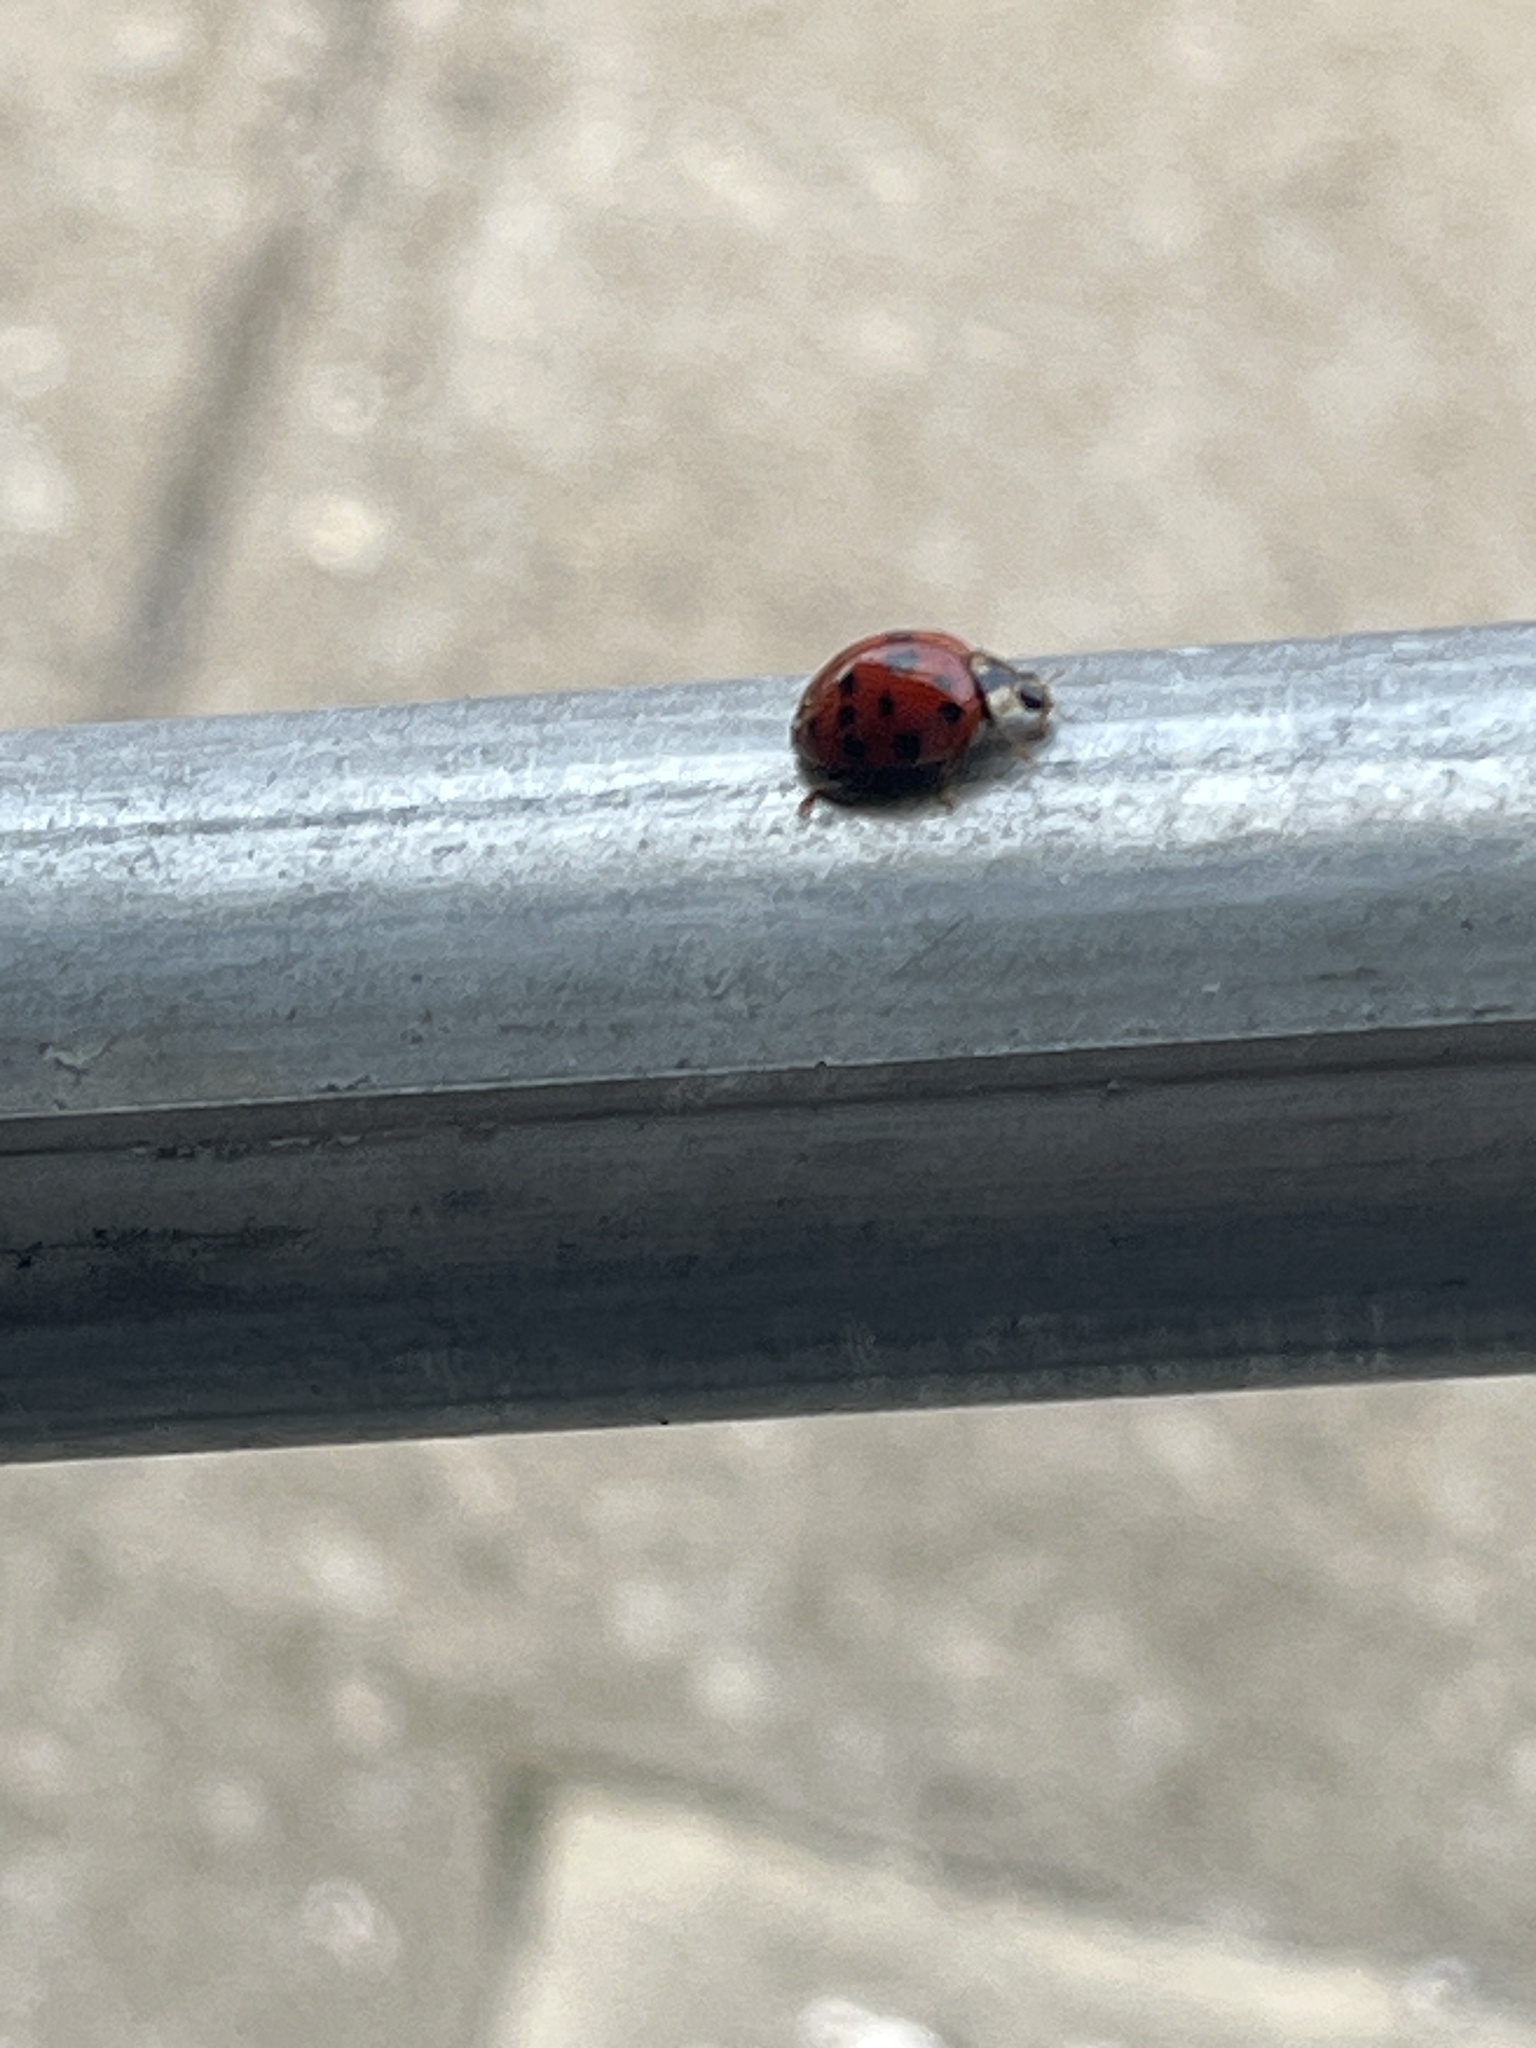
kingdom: Animalia
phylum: Arthropoda
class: Insecta
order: Coleoptera
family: Coccinellidae
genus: Harmonia
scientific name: Harmonia axyridis
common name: Harlequin ladybird
